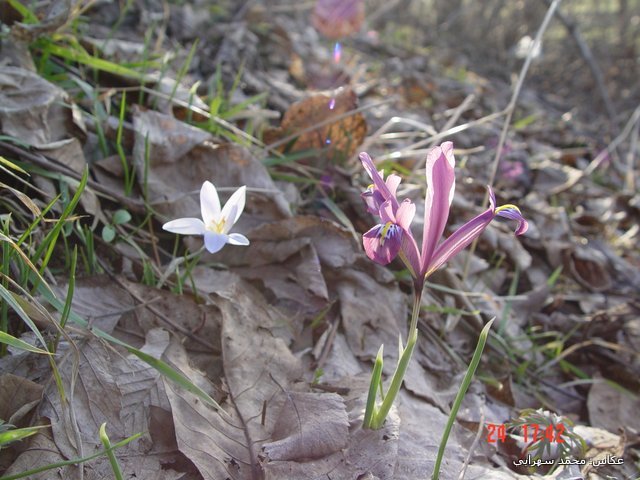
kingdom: Plantae
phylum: Tracheophyta
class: Liliopsida
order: Asparagales
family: Iridaceae
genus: Iris
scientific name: Iris reticulata
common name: Netted iris
